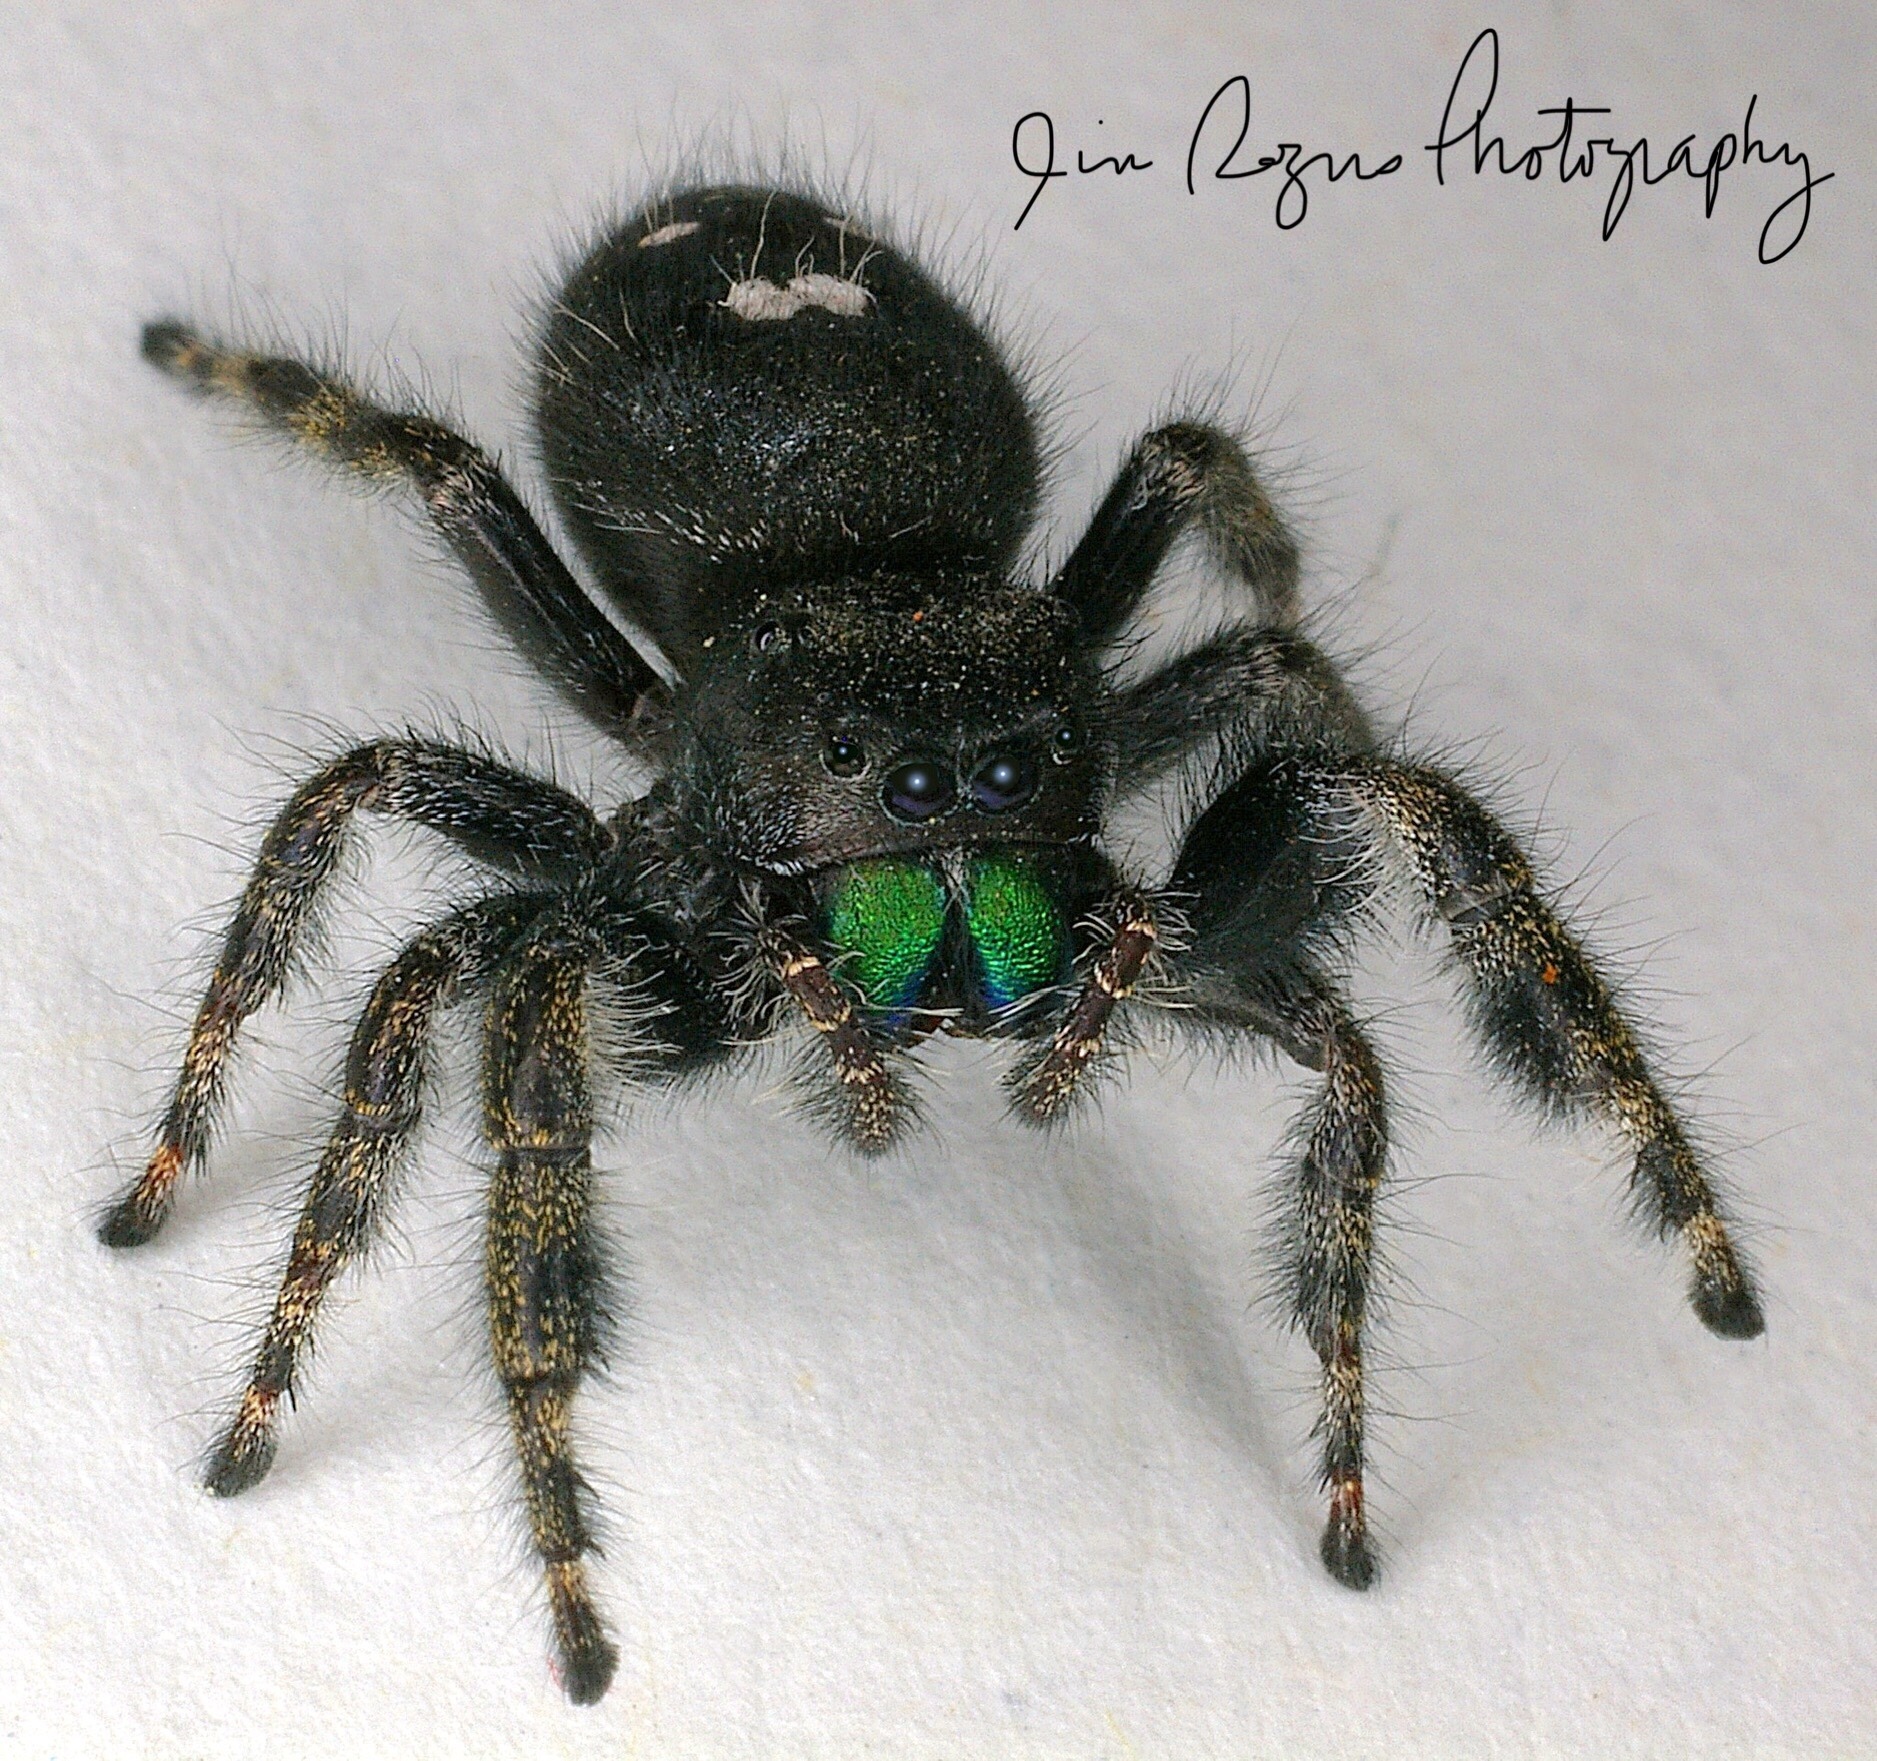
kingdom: Animalia
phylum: Arthropoda
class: Arachnida
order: Araneae
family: Salticidae
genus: Phidippus
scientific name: Phidippus audax
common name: Bold jumper
